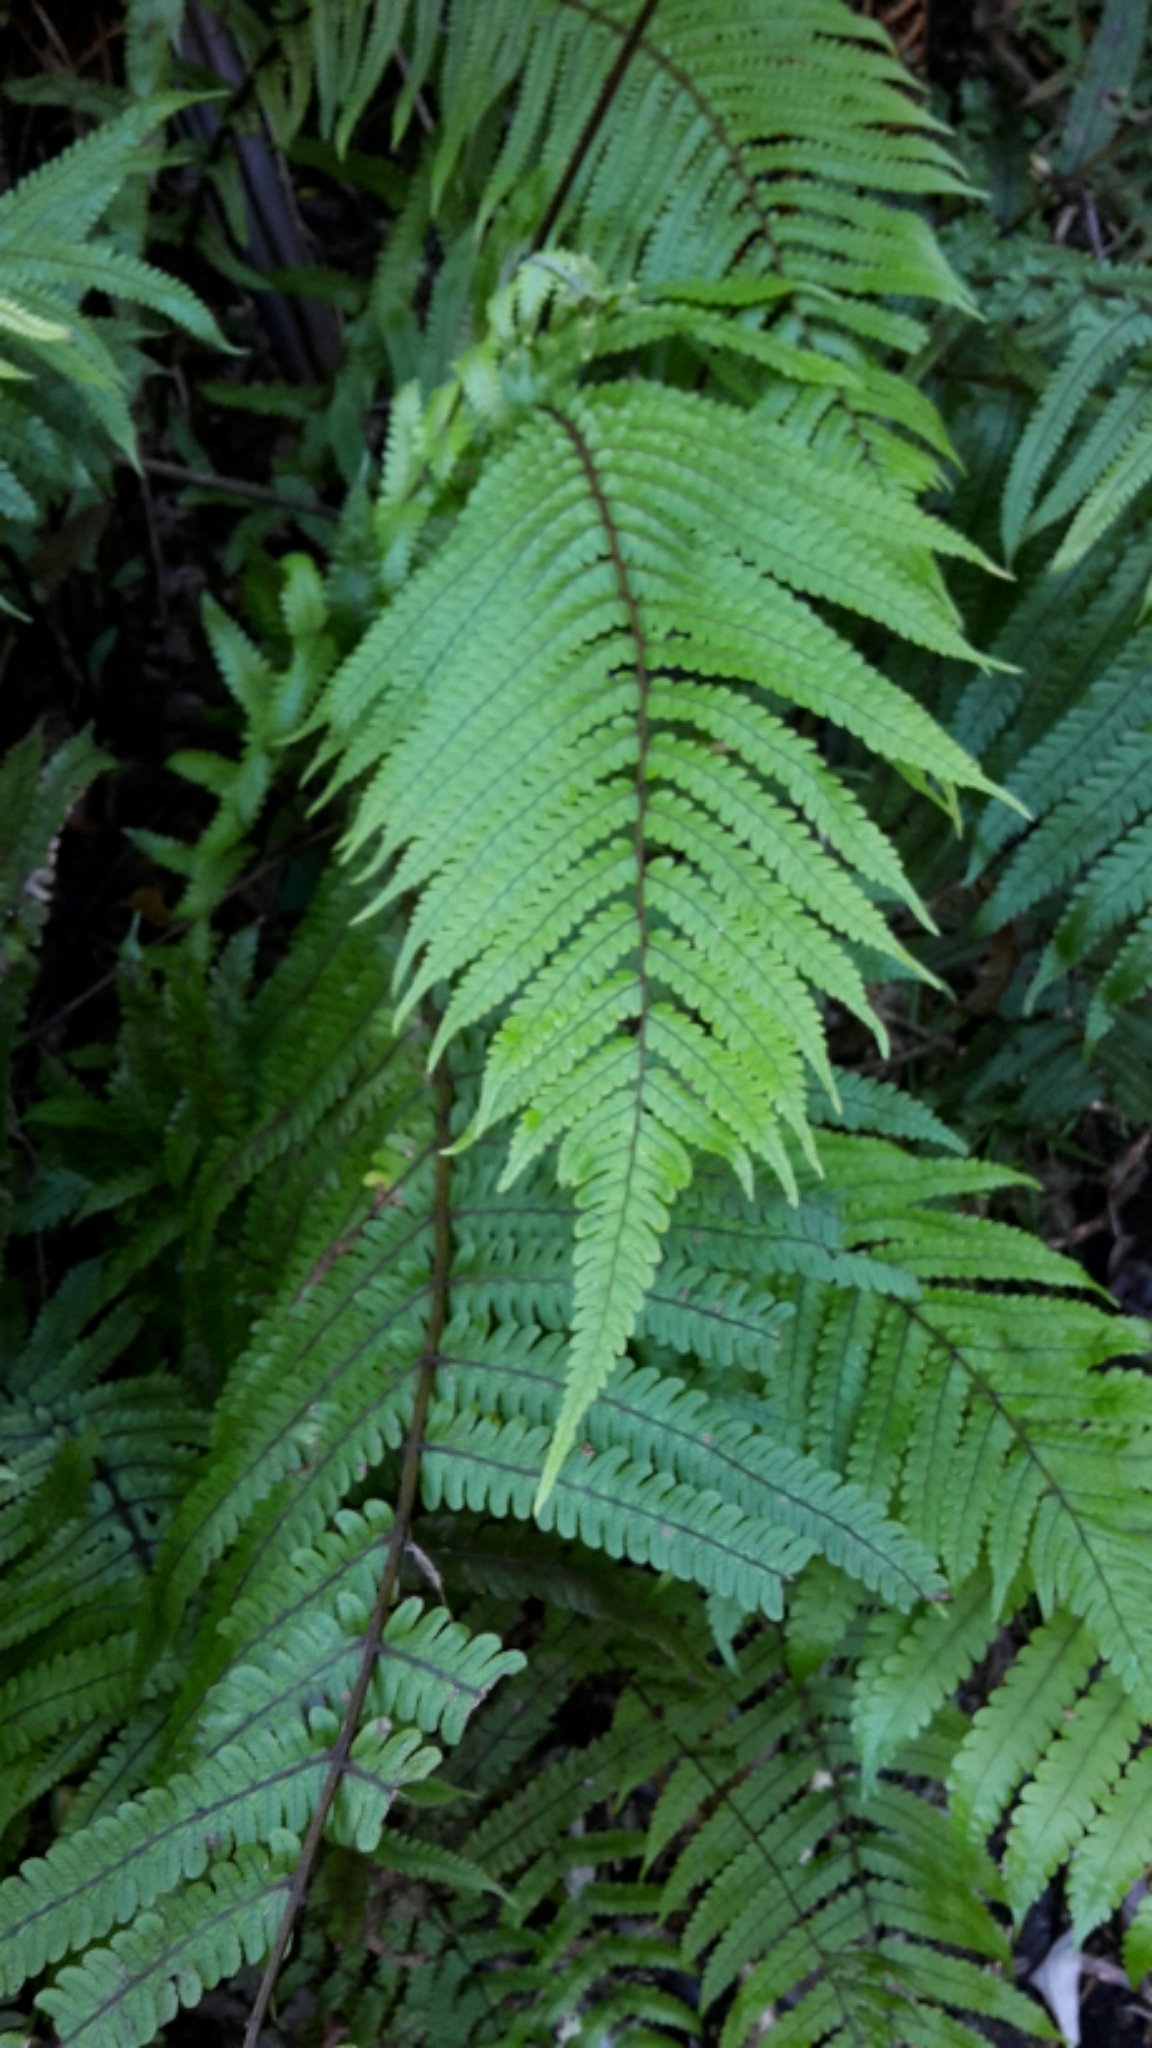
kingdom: Plantae
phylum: Tracheophyta
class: Polypodiopsida
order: Polypodiales
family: Thelypteridaceae
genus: Pakau
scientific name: Pakau pennigera
